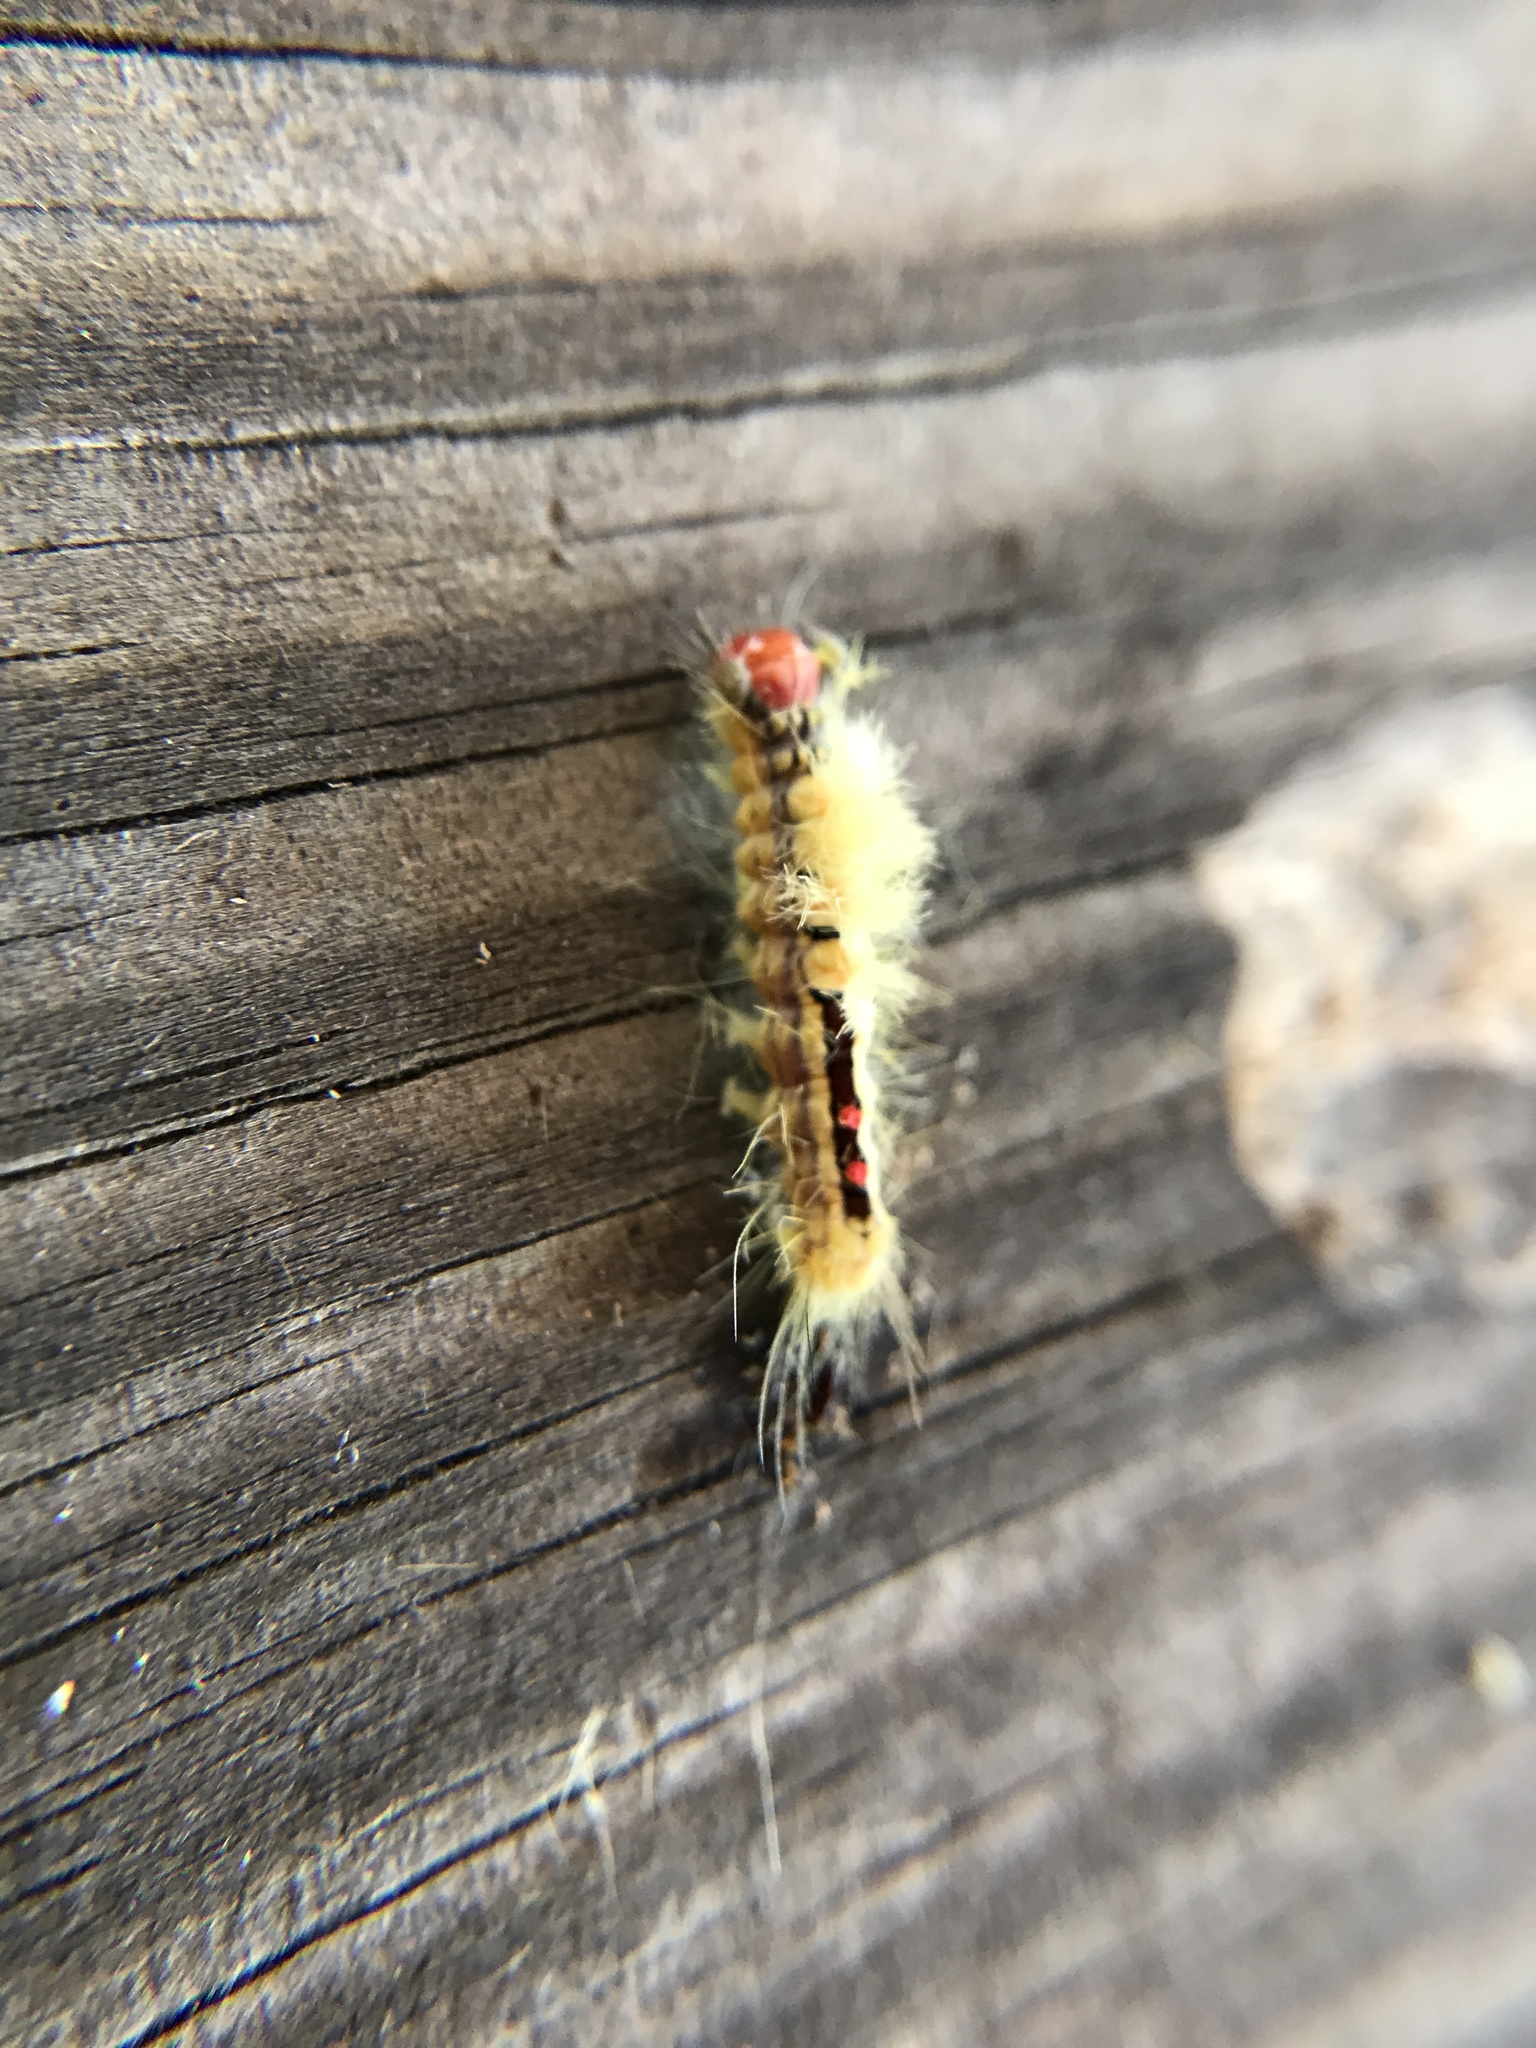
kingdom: Animalia
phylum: Arthropoda
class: Insecta
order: Lepidoptera
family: Erebidae
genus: Orgyia
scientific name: Orgyia leucostigma
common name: White-marked tussock moth
